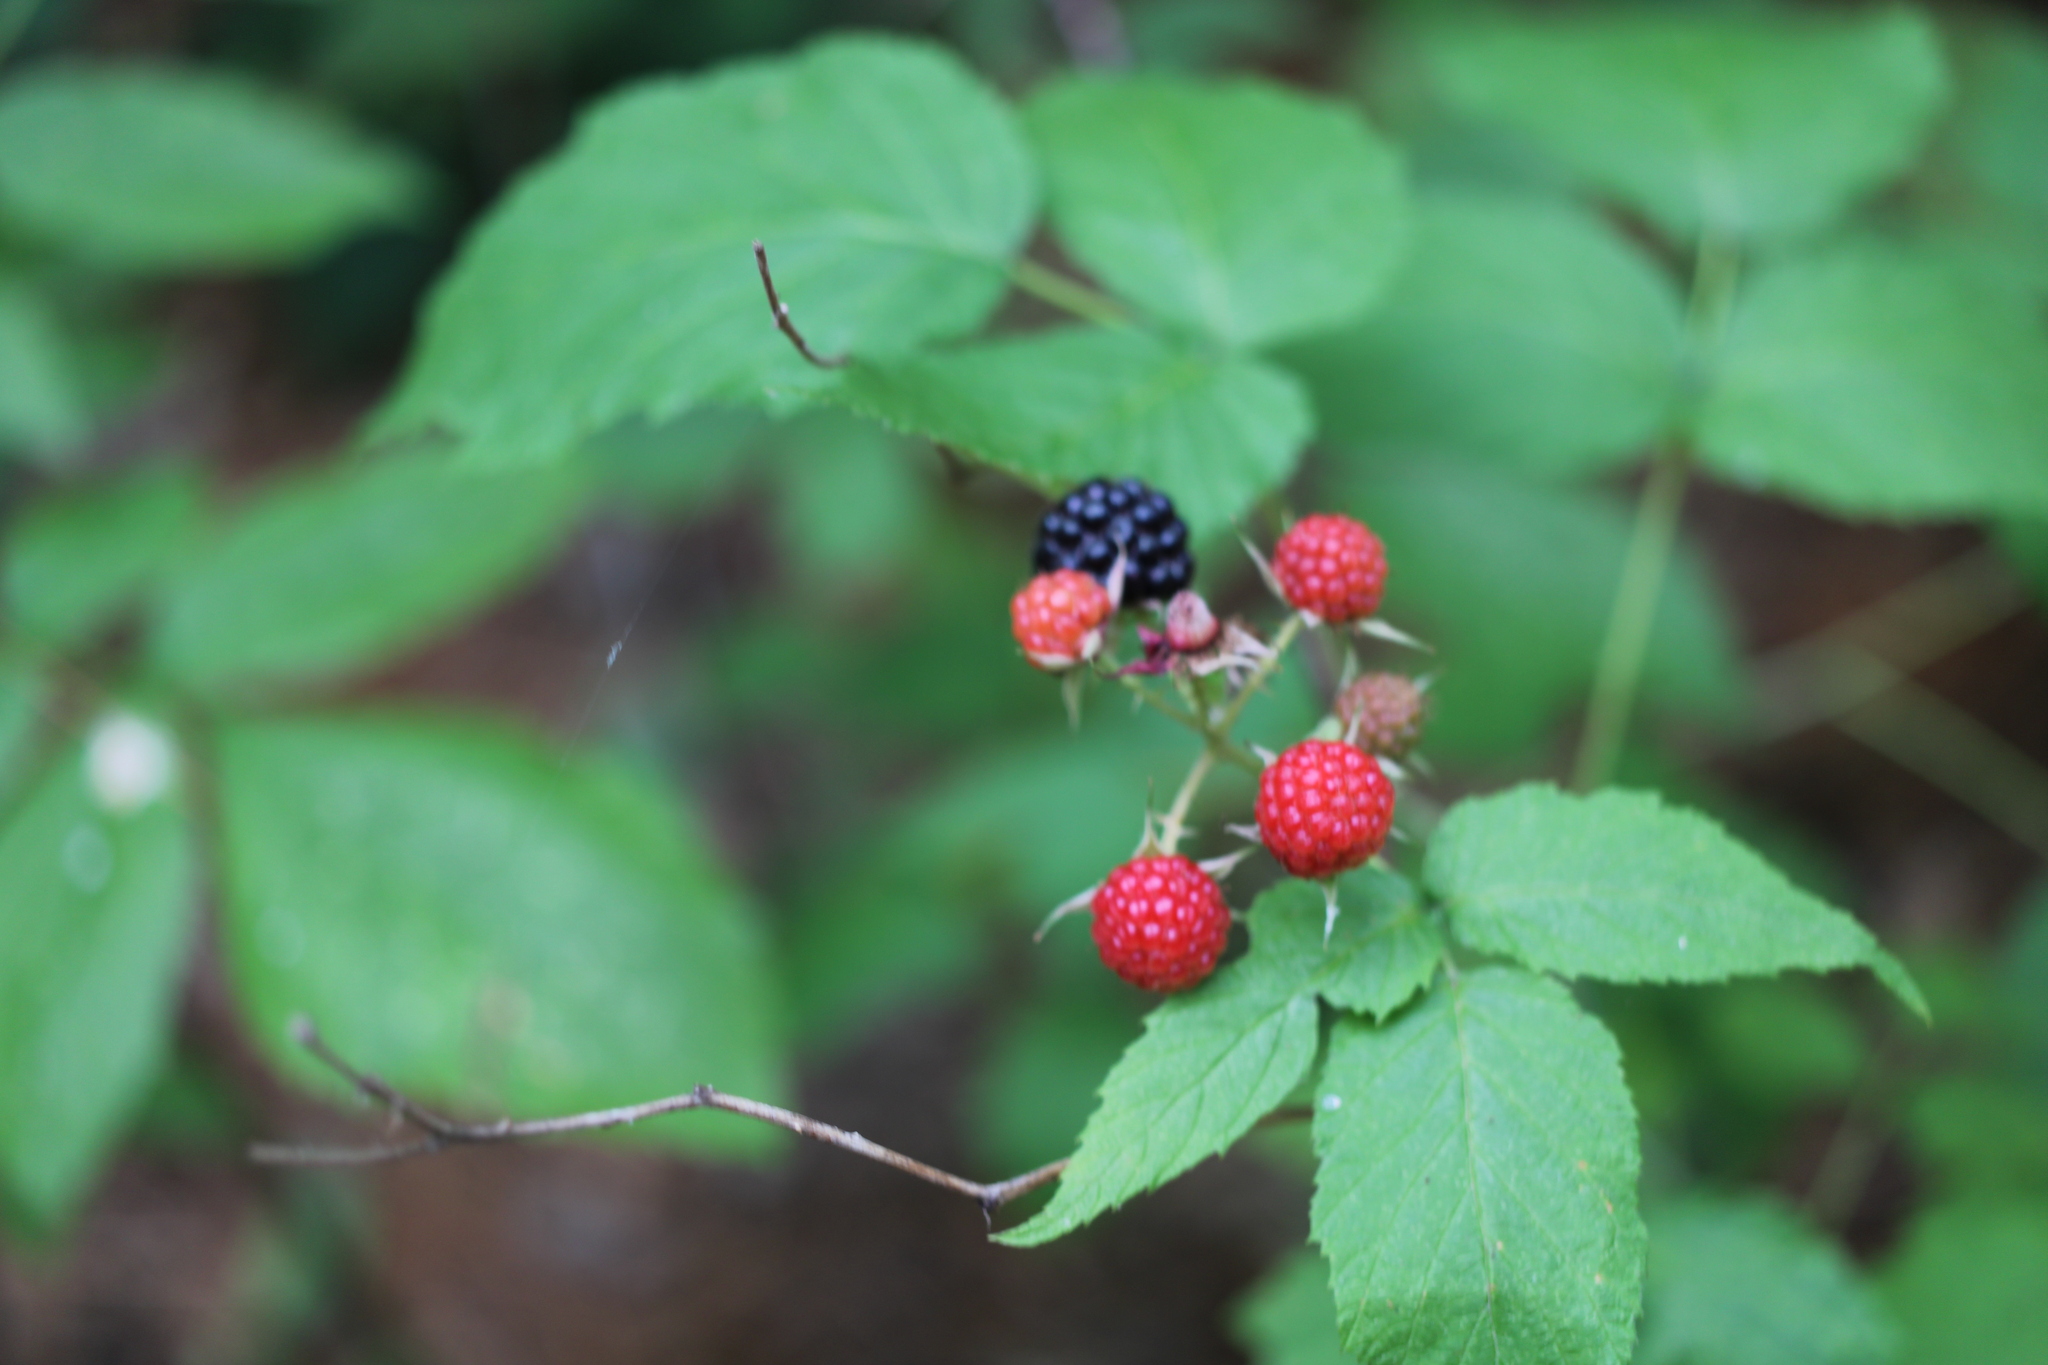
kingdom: Plantae
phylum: Tracheophyta
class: Magnoliopsida
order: Rosales
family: Rosaceae
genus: Rubus
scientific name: Rubus occidentalis
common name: Black raspberry
